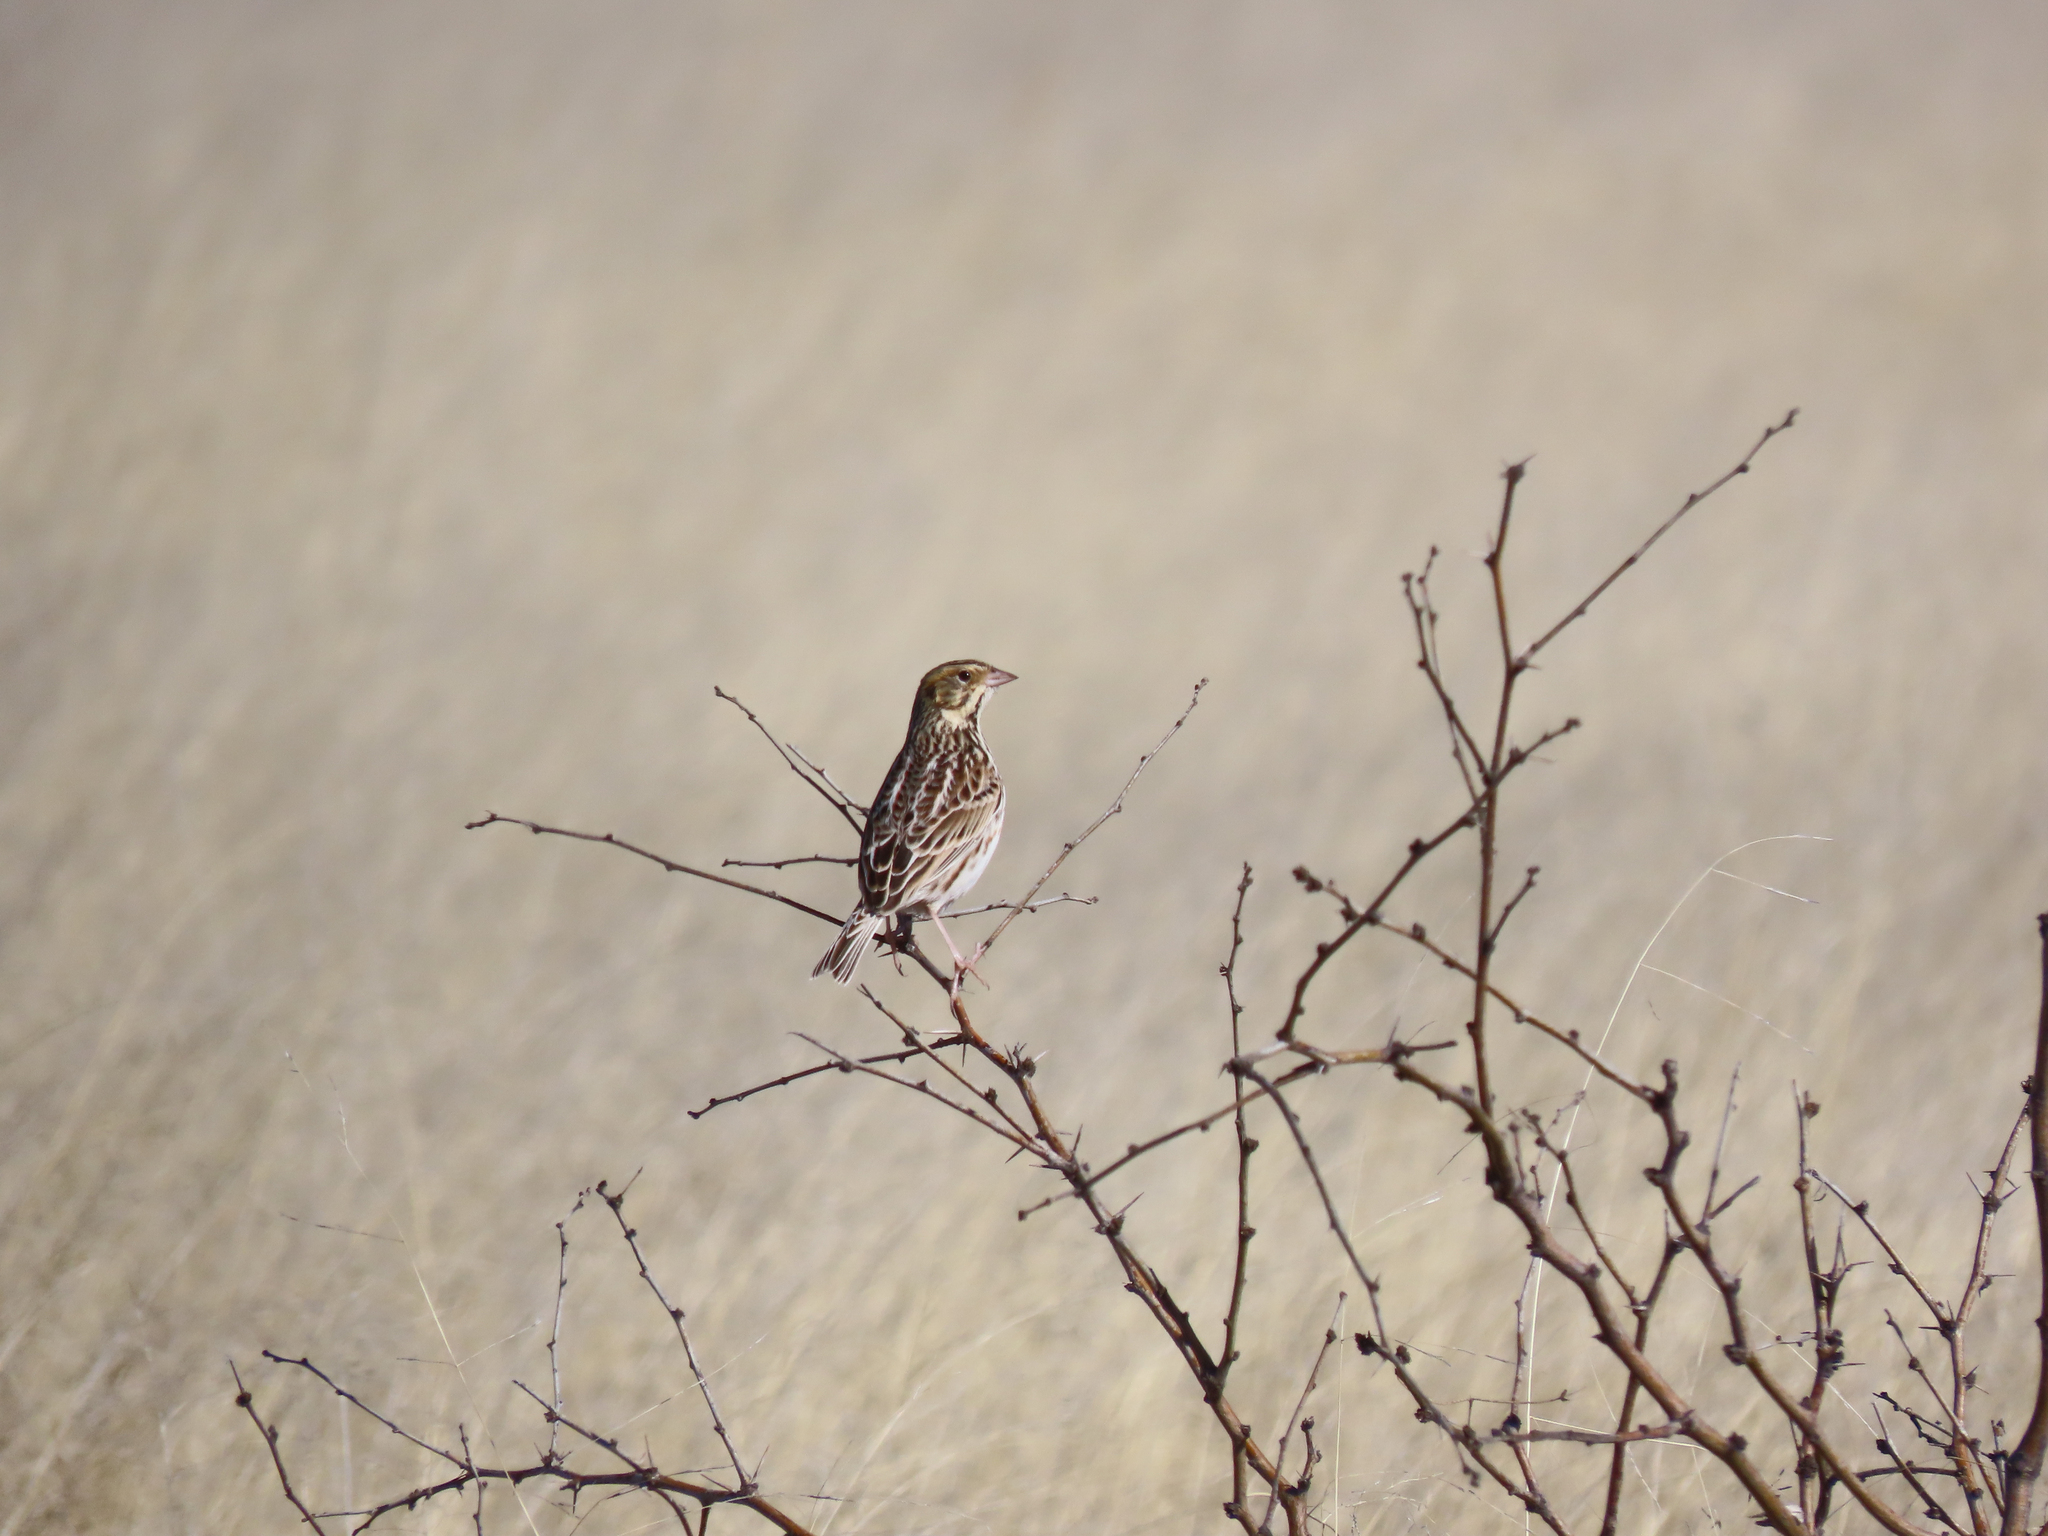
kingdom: Animalia
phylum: Chordata
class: Aves
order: Passeriformes
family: Passerellidae
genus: Centronyx
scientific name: Centronyx bairdii
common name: Baird's sparrow
